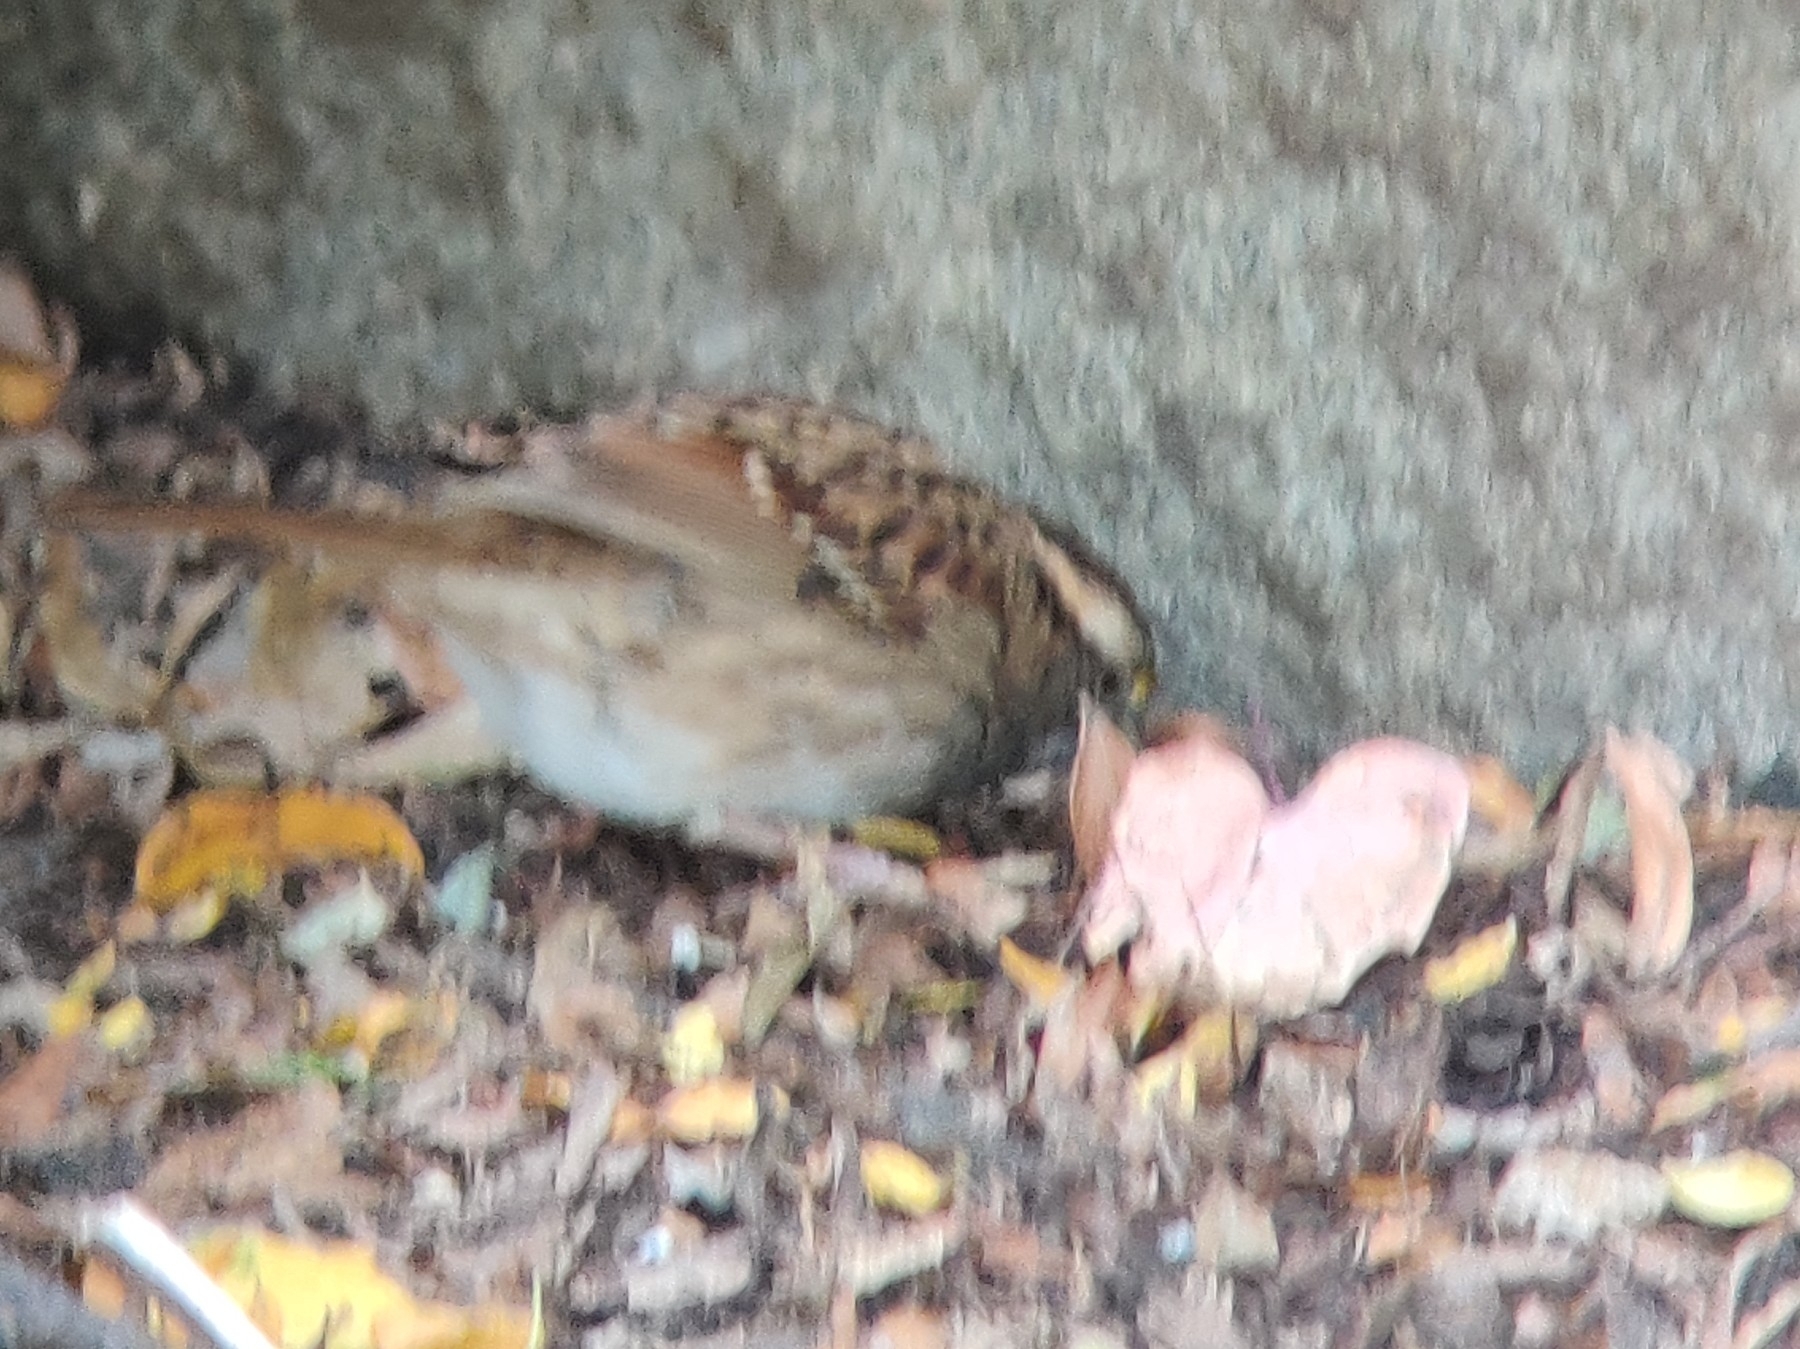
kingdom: Animalia
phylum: Chordata
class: Aves
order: Passeriformes
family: Passerellidae
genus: Zonotrichia
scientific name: Zonotrichia albicollis
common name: White-throated sparrow
